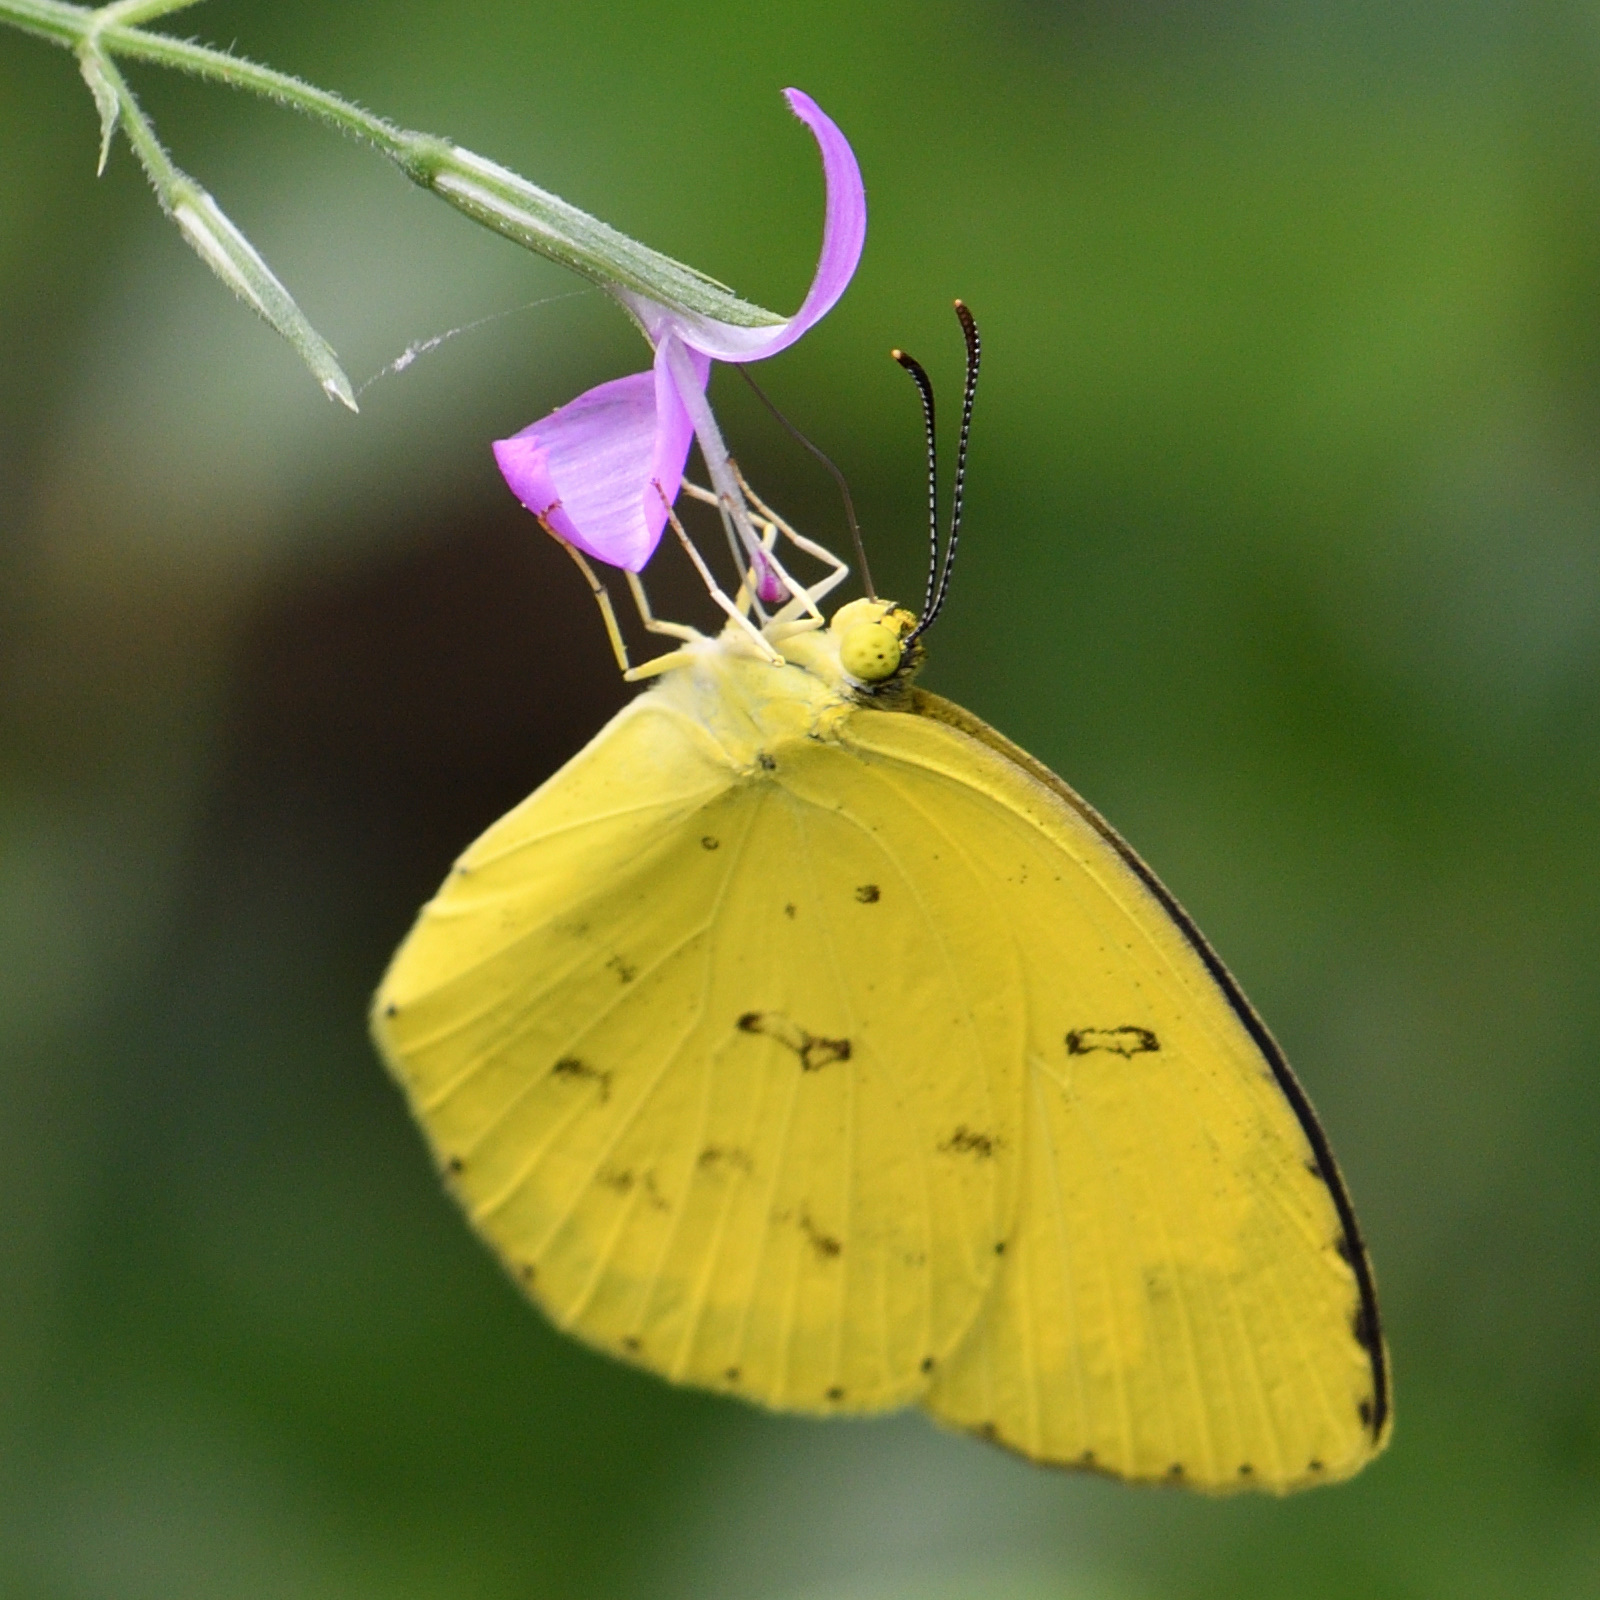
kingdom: Animalia
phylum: Arthropoda
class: Insecta
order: Lepidoptera
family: Pieridae
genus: Eurema
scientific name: Eurema hecabe
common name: Pale grass yellow
